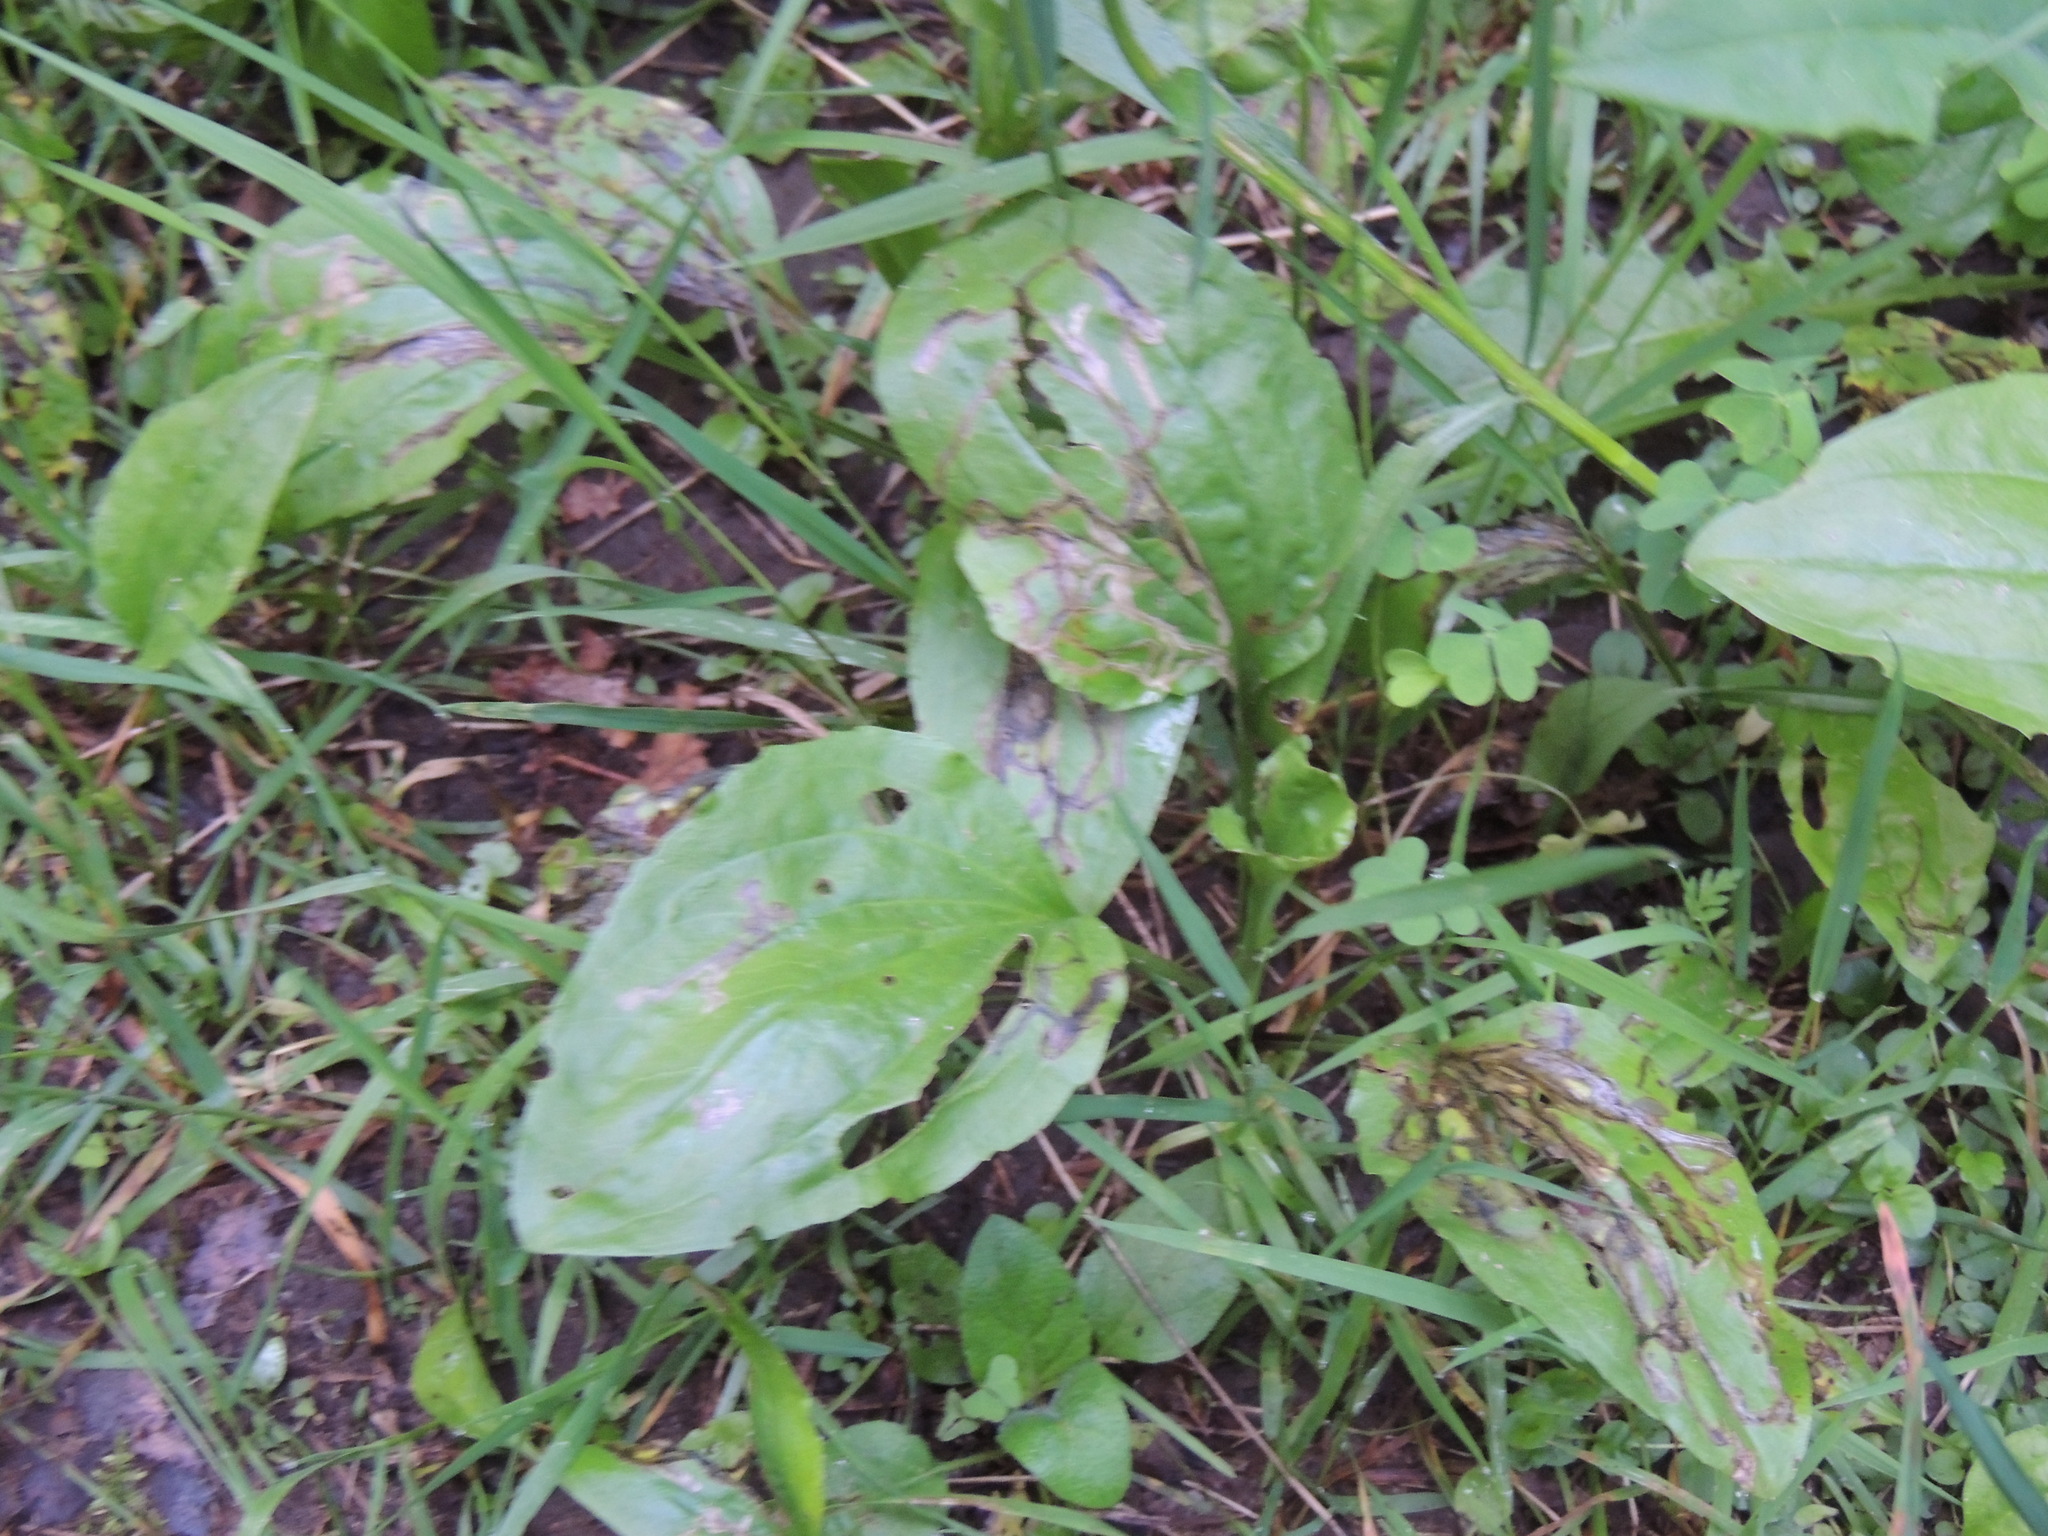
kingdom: Plantae
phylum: Tracheophyta
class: Magnoliopsida
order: Lamiales
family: Plantaginaceae
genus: Plantago
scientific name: Plantago major
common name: Common plantain
